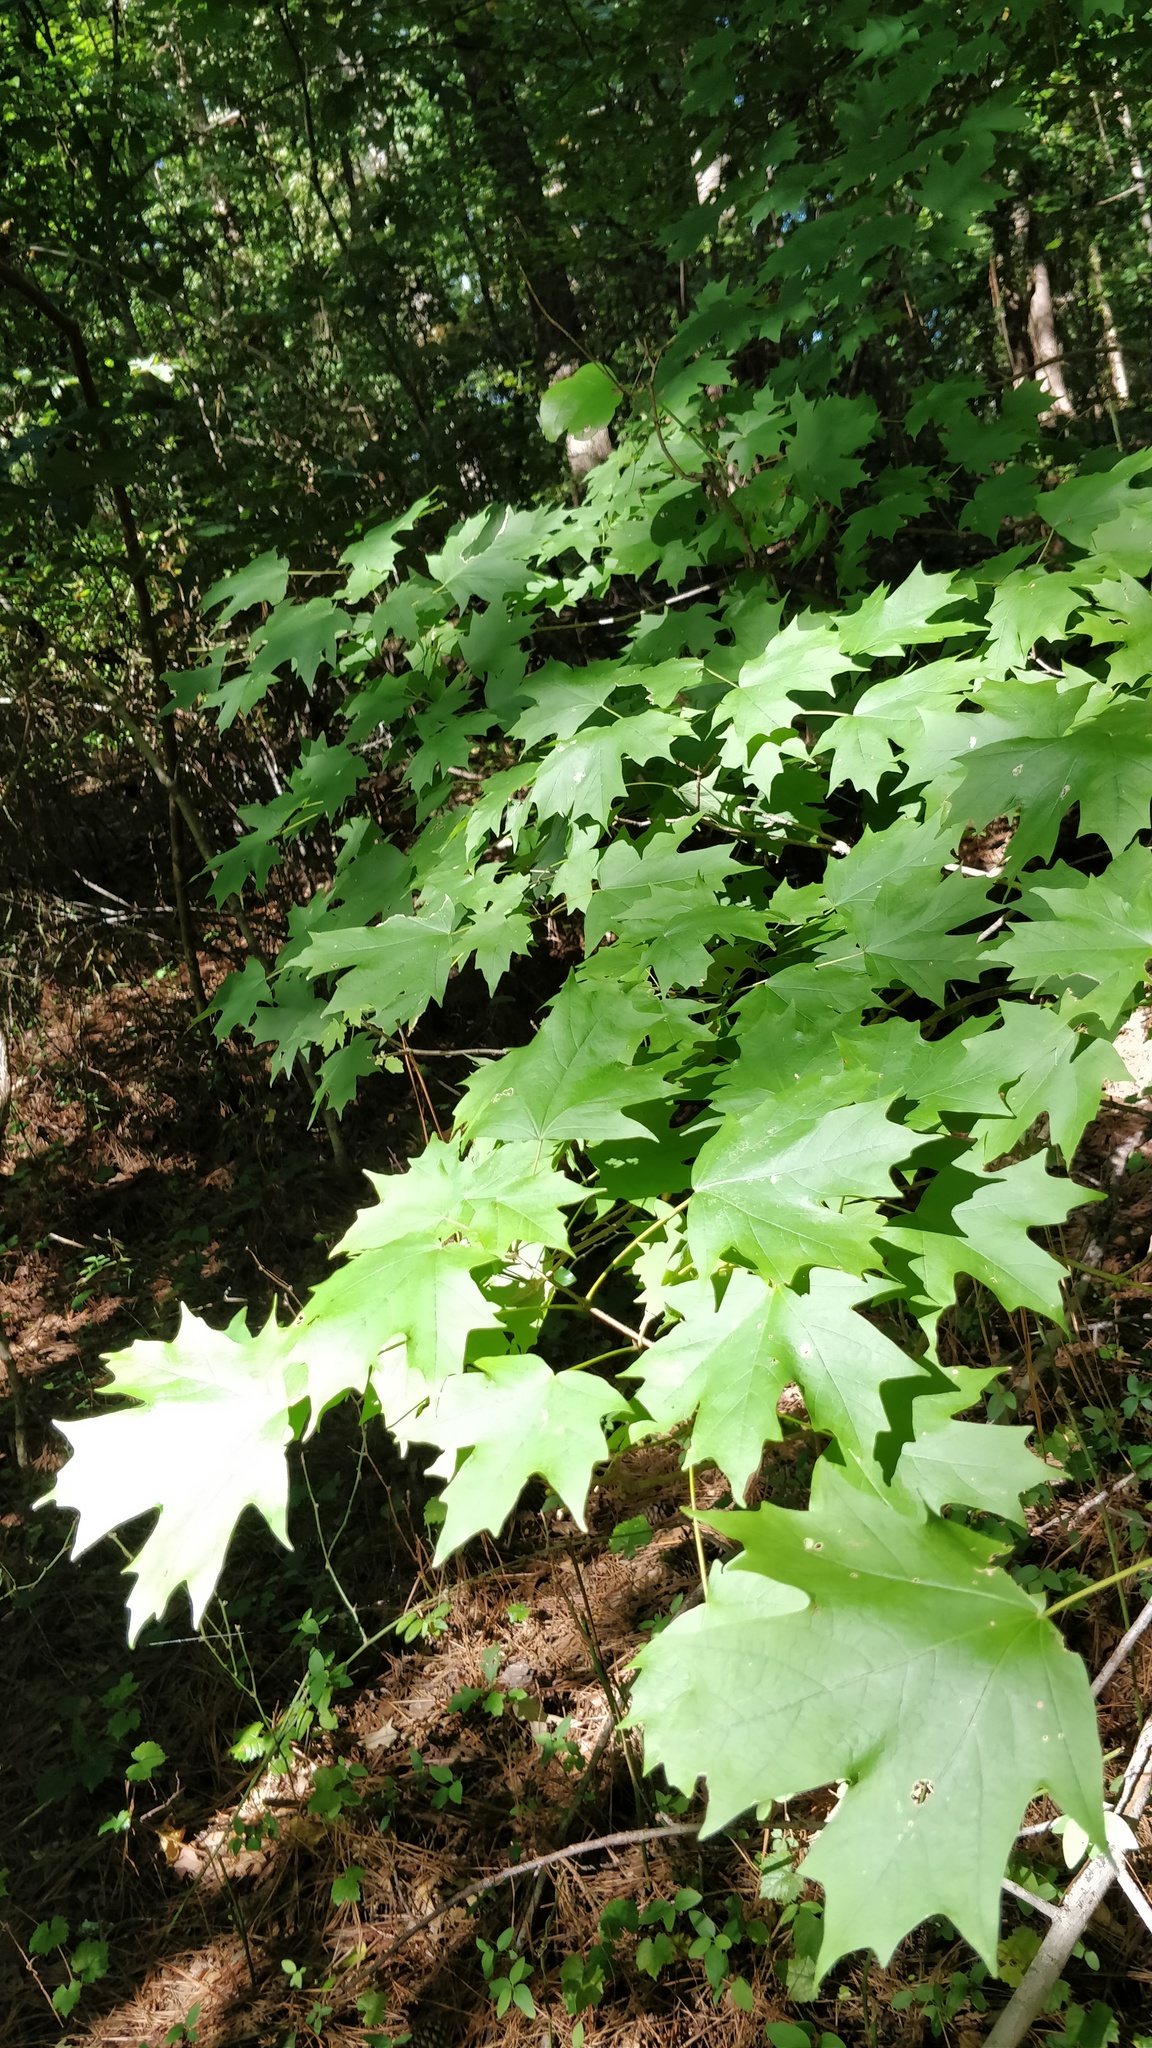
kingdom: Plantae
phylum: Tracheophyta
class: Magnoliopsida
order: Sapindales
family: Sapindaceae
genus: Acer
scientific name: Acer saccharum
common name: Sugar maple
